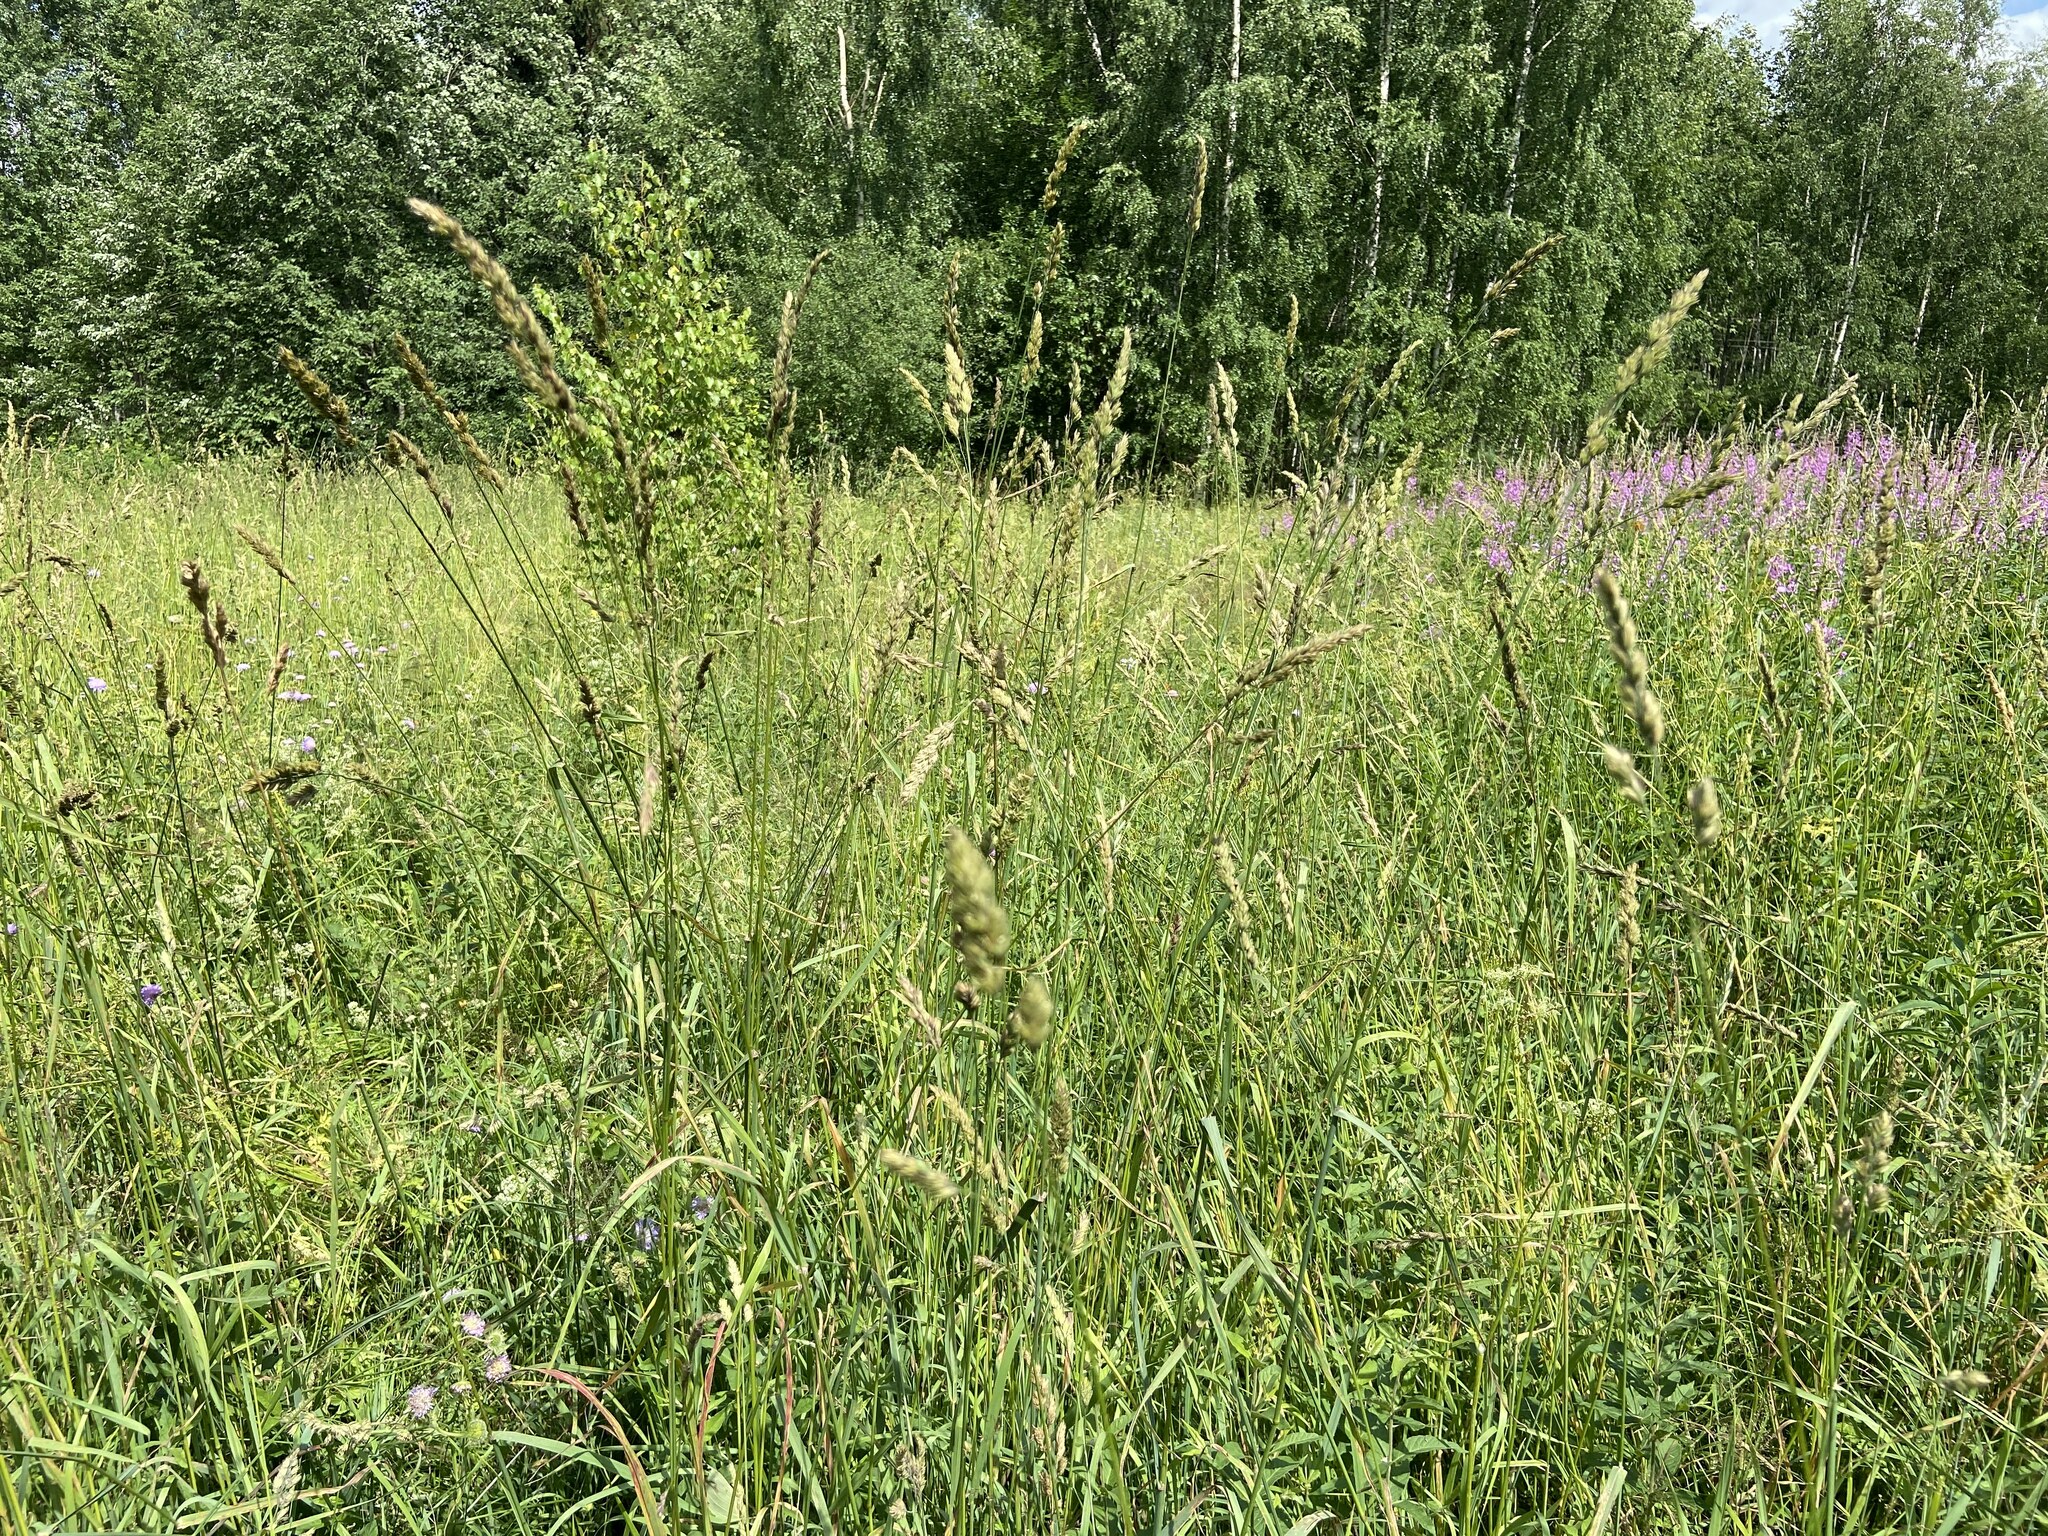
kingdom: Plantae
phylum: Tracheophyta
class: Liliopsida
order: Poales
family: Poaceae
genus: Dactylis
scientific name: Dactylis glomerata
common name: Orchardgrass
